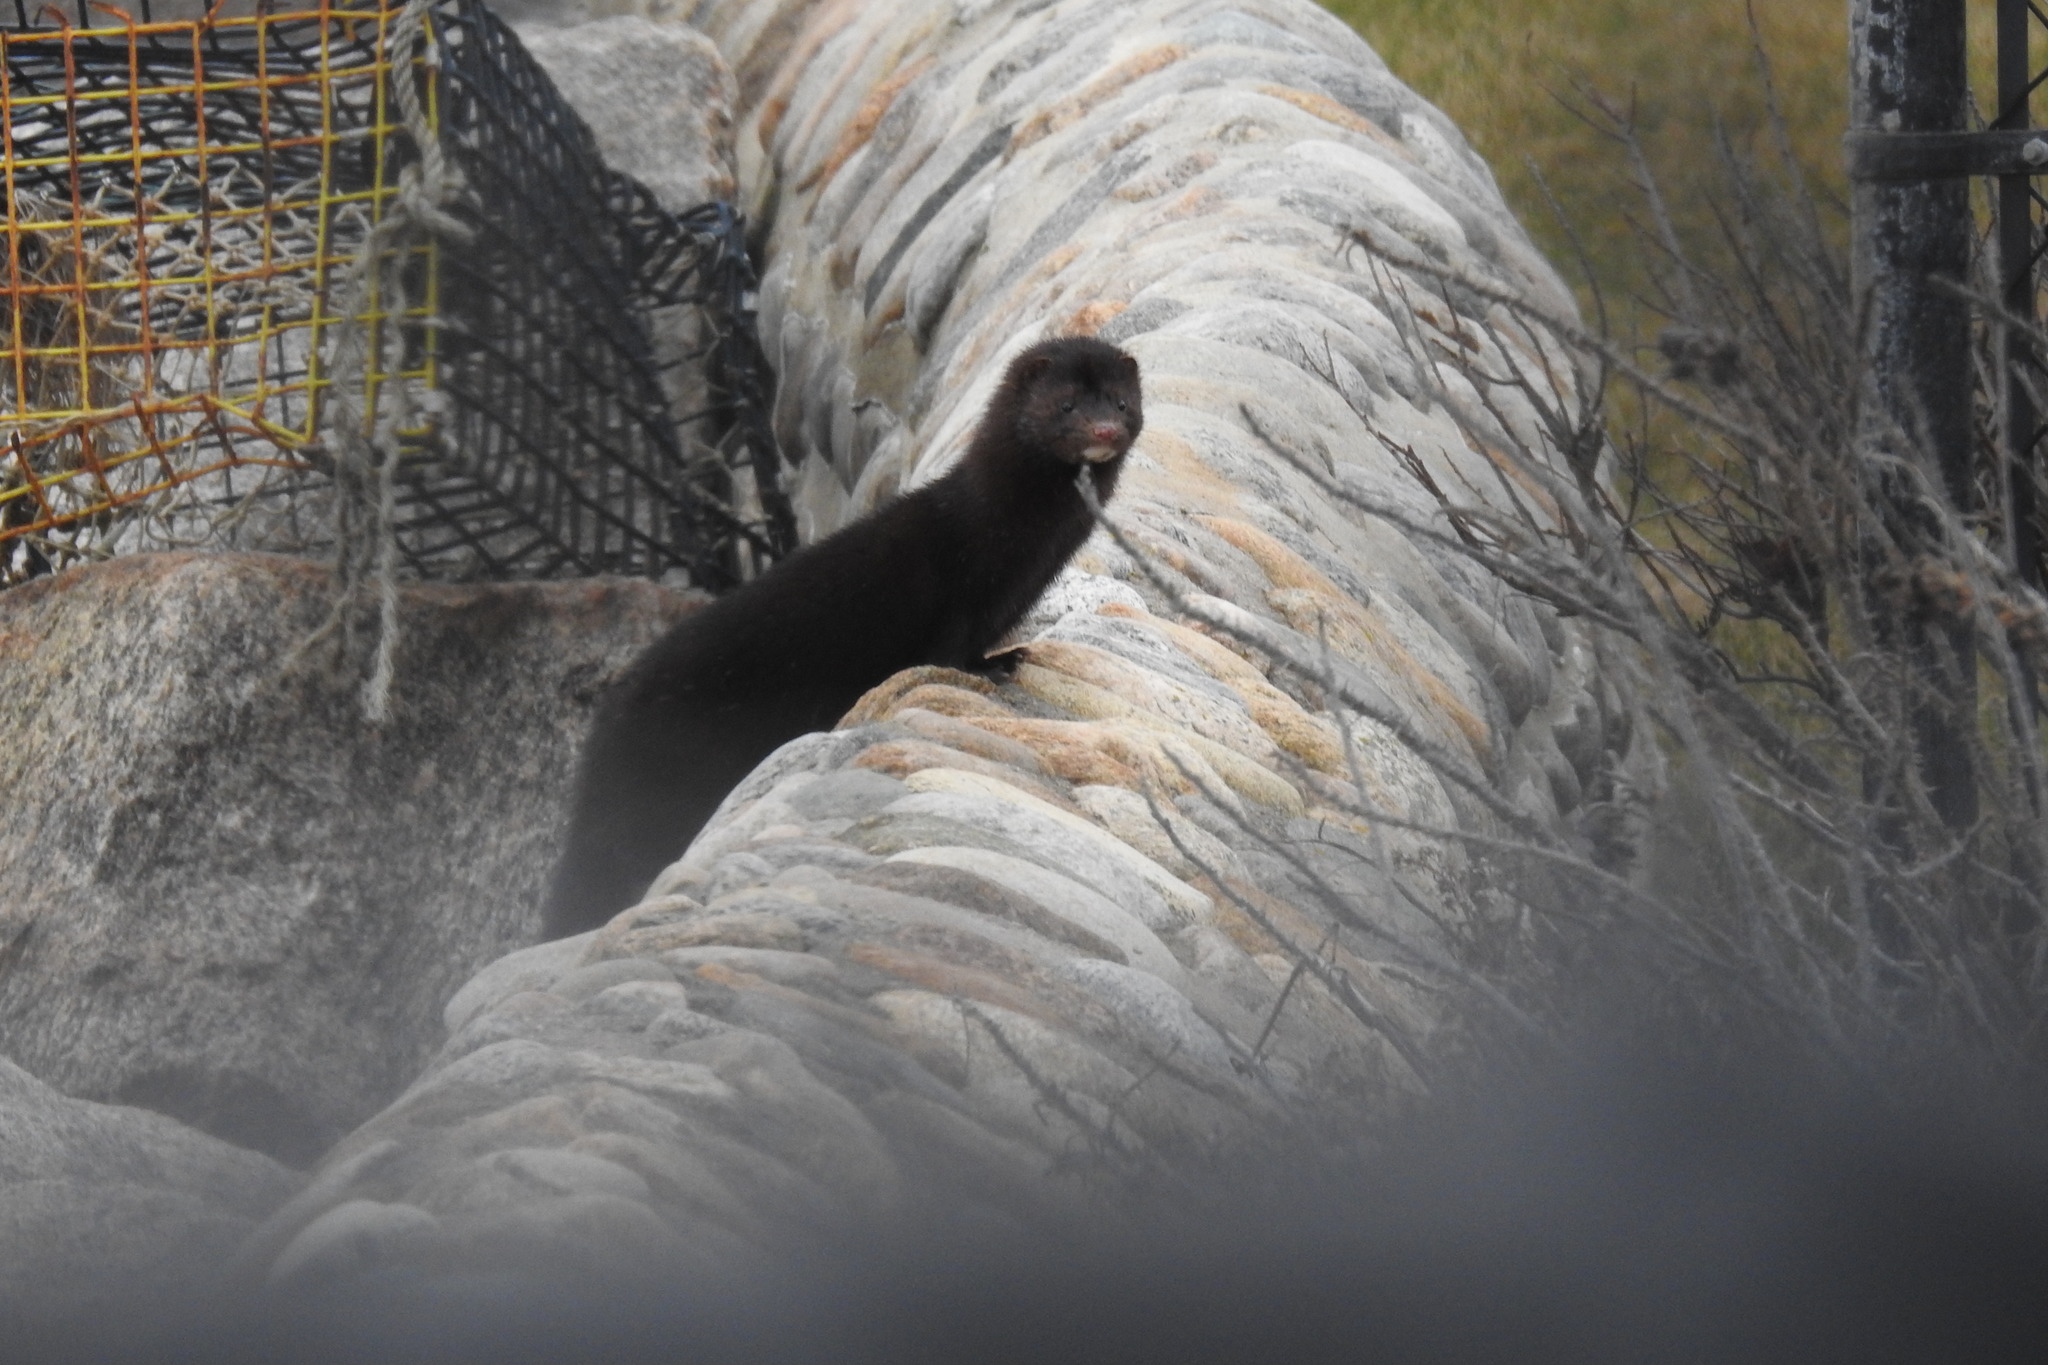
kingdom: Animalia
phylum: Chordata
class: Mammalia
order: Carnivora
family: Mustelidae
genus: Mustela
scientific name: Mustela
